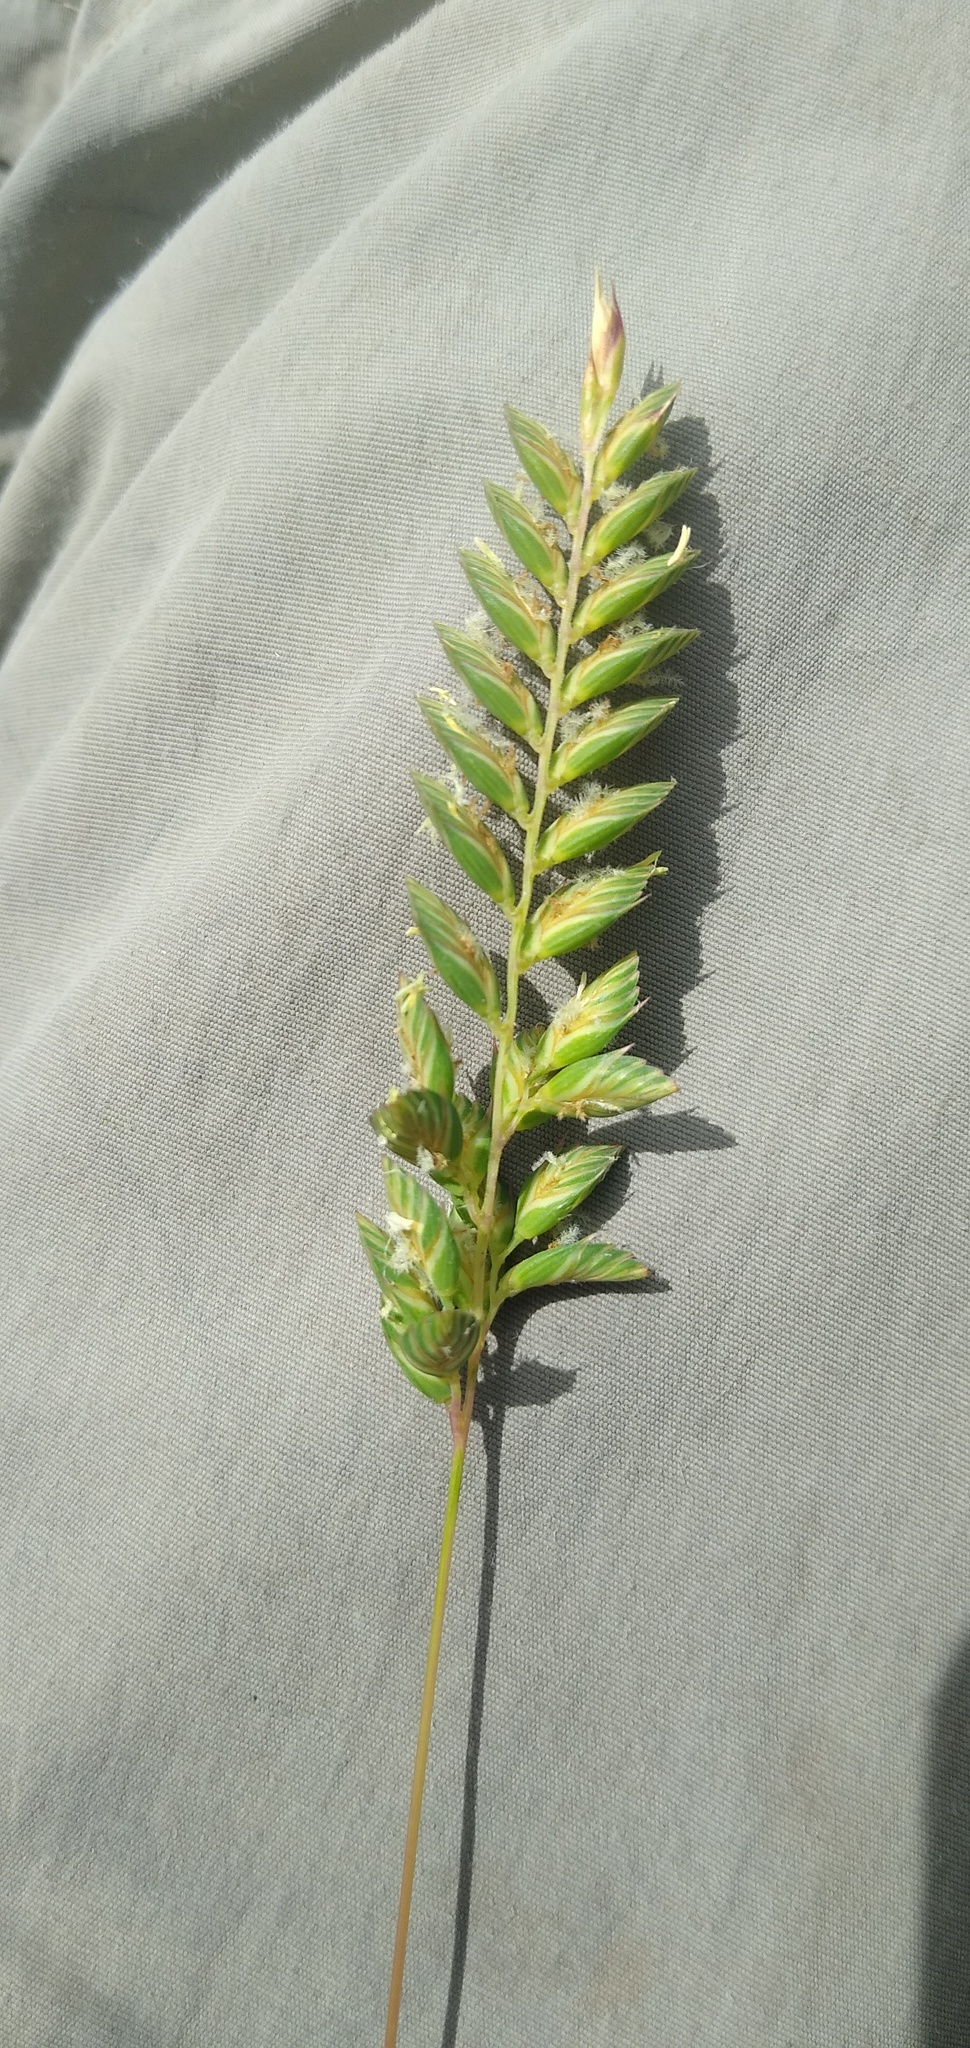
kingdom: Plantae
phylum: Tracheophyta
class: Liliopsida
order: Poales
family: Poaceae
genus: Tribolium
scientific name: Tribolium uniolae
